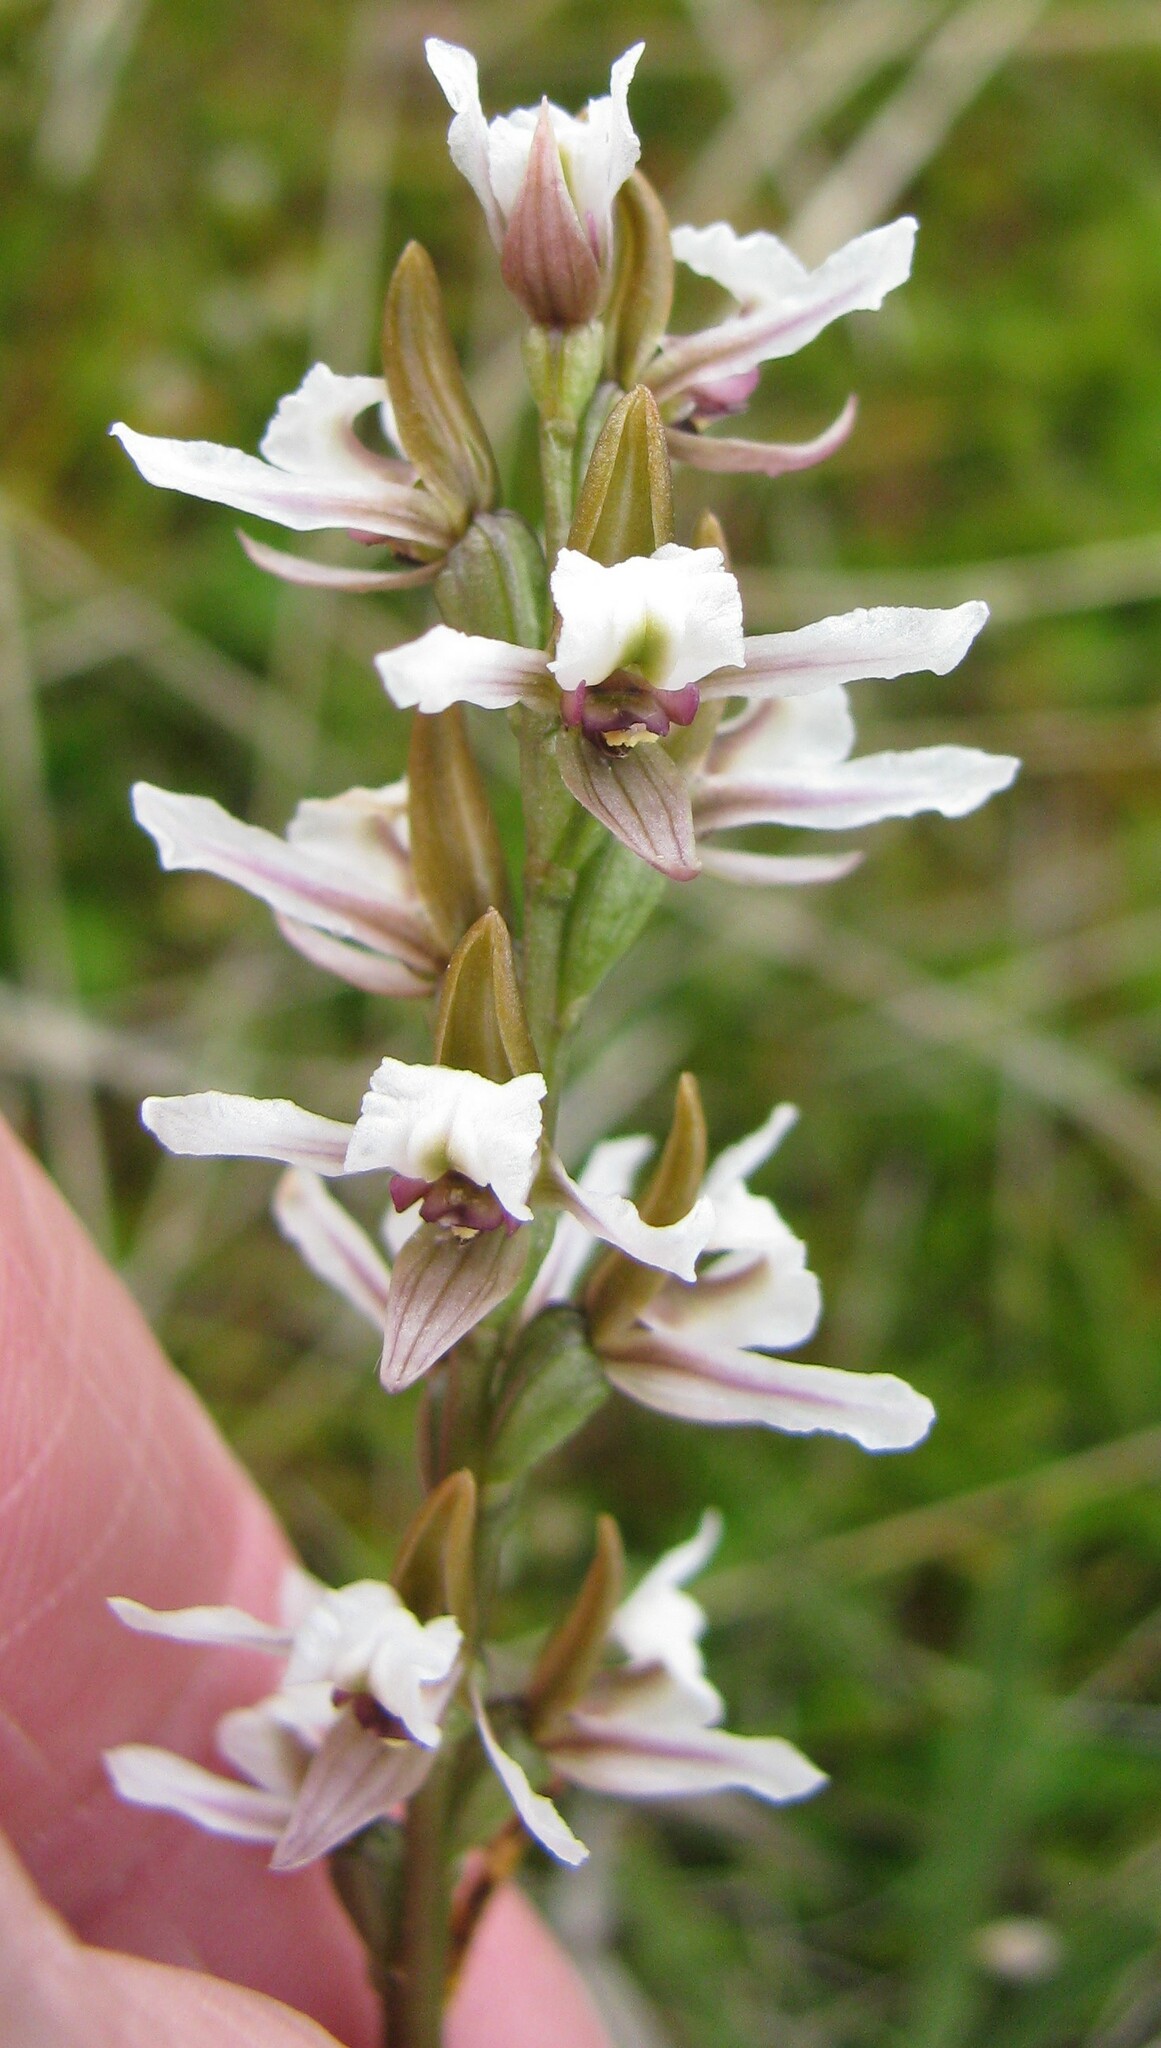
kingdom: Plantae
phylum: Tracheophyta
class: Liliopsida
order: Asparagales
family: Orchidaceae
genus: Prasophyllum
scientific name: Prasophyllum mimulum
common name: Highland leek orchid
